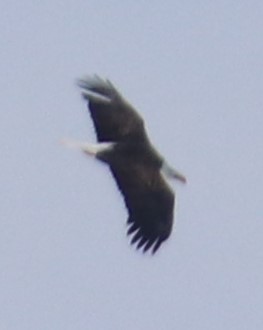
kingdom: Animalia
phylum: Chordata
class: Aves
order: Accipitriformes
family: Accipitridae
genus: Haliaeetus
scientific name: Haliaeetus leucocephalus
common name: Bald eagle
